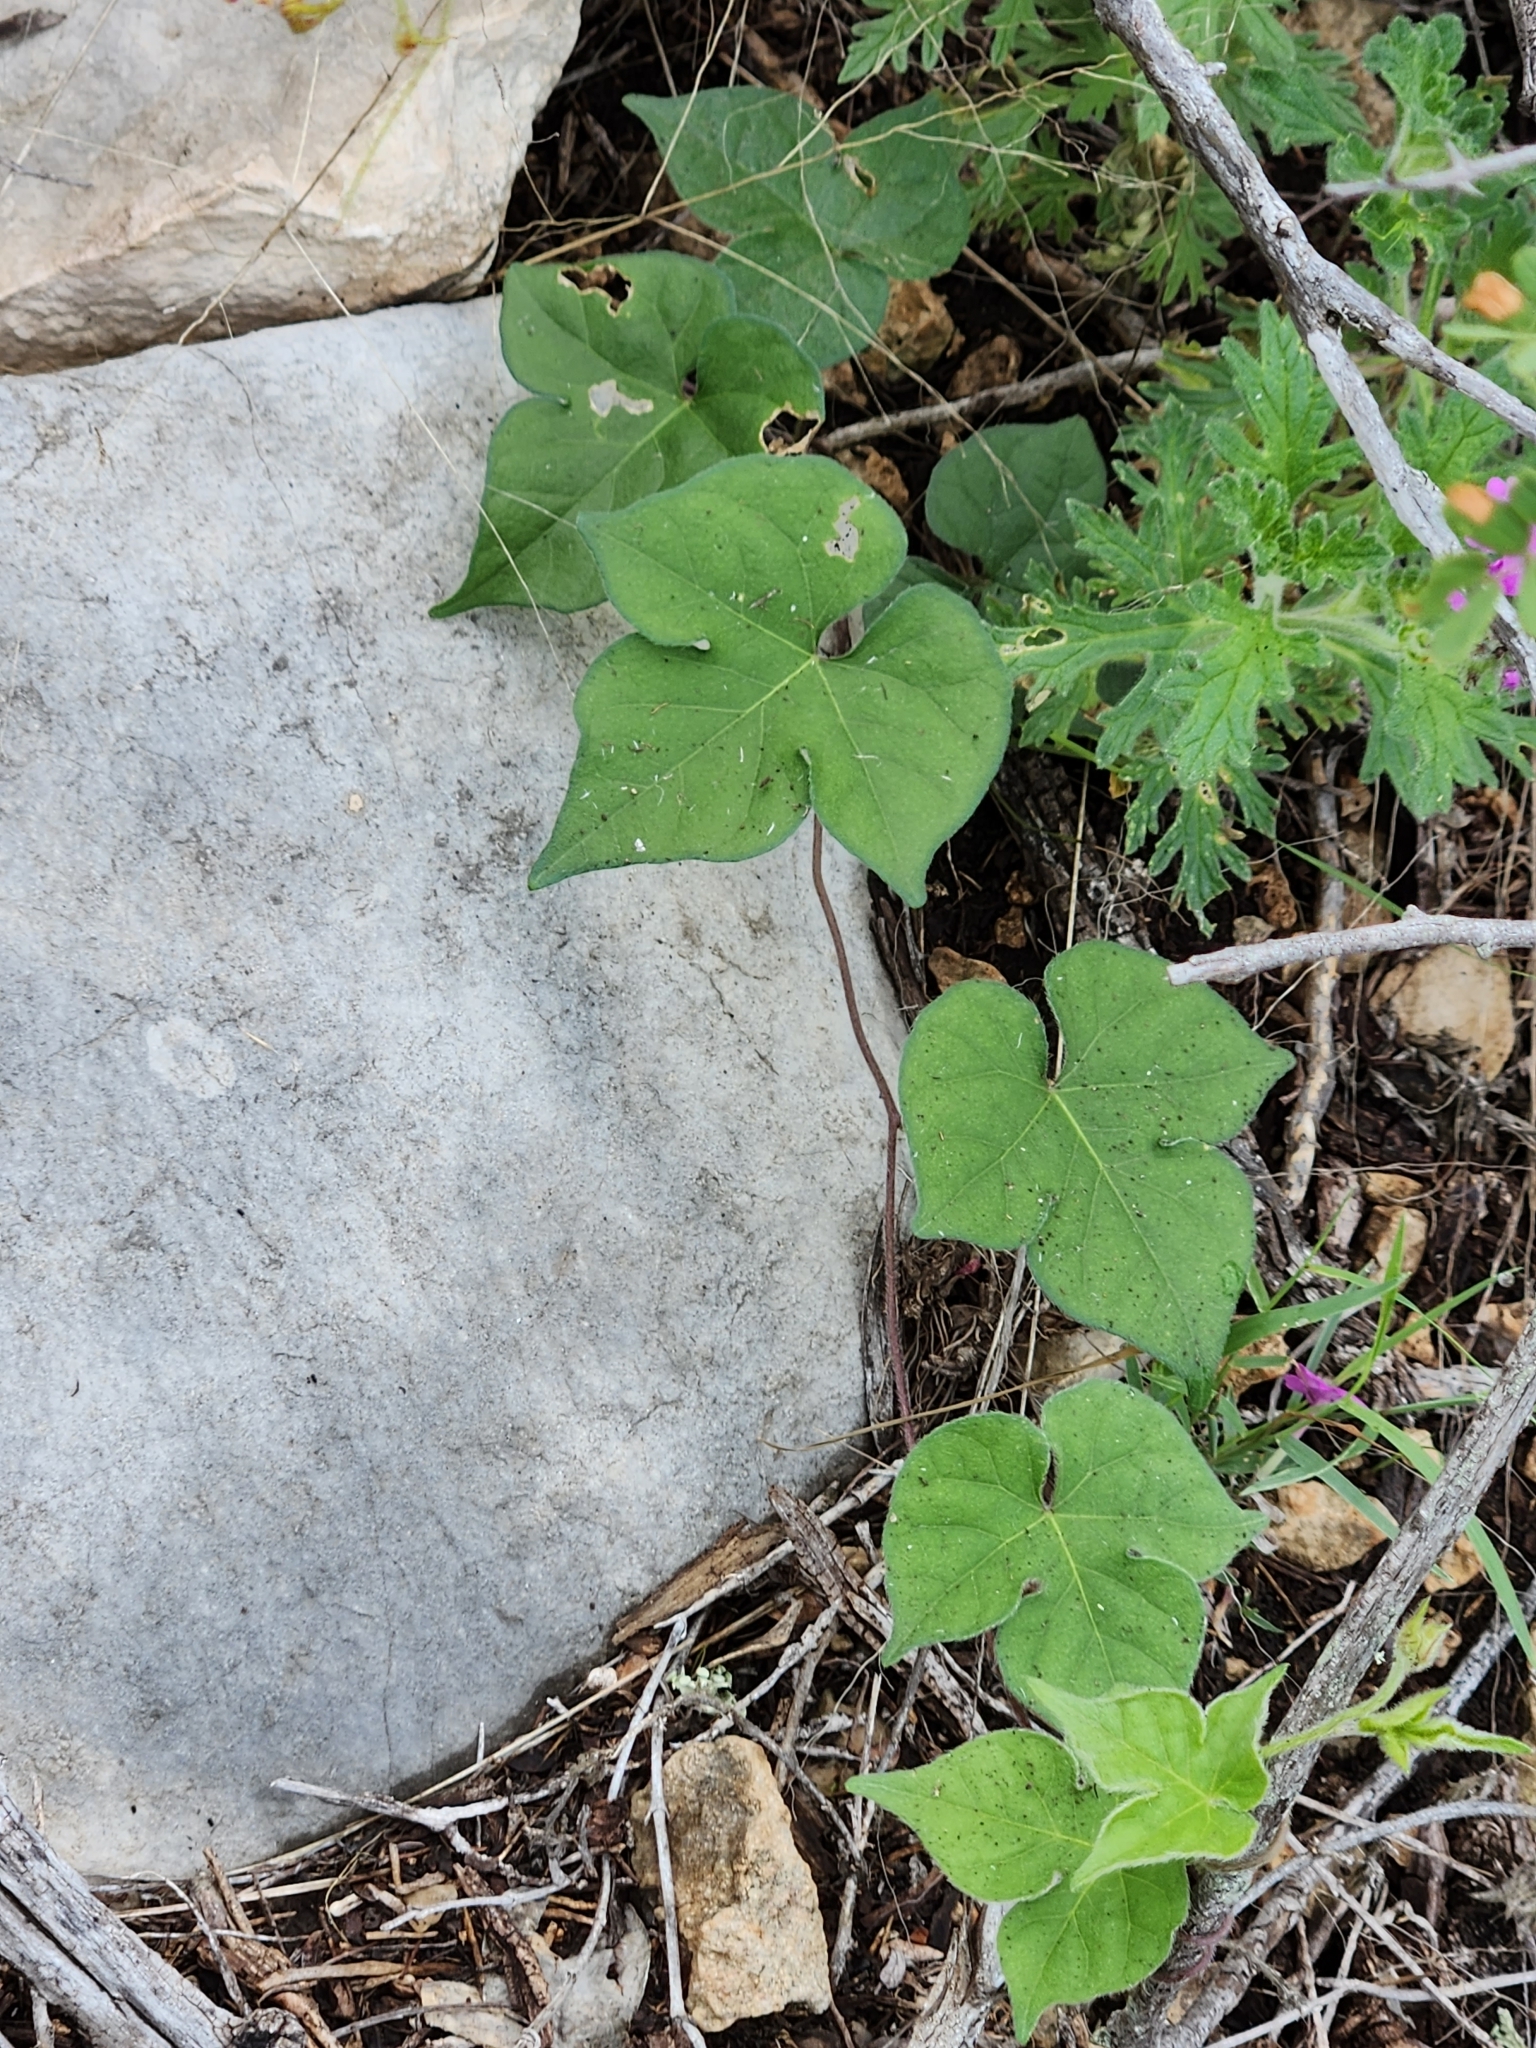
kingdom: Plantae
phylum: Tracheophyta
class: Magnoliopsida
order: Solanales
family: Convolvulaceae
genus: Ipomoea
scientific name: Ipomoea lindheimeri
